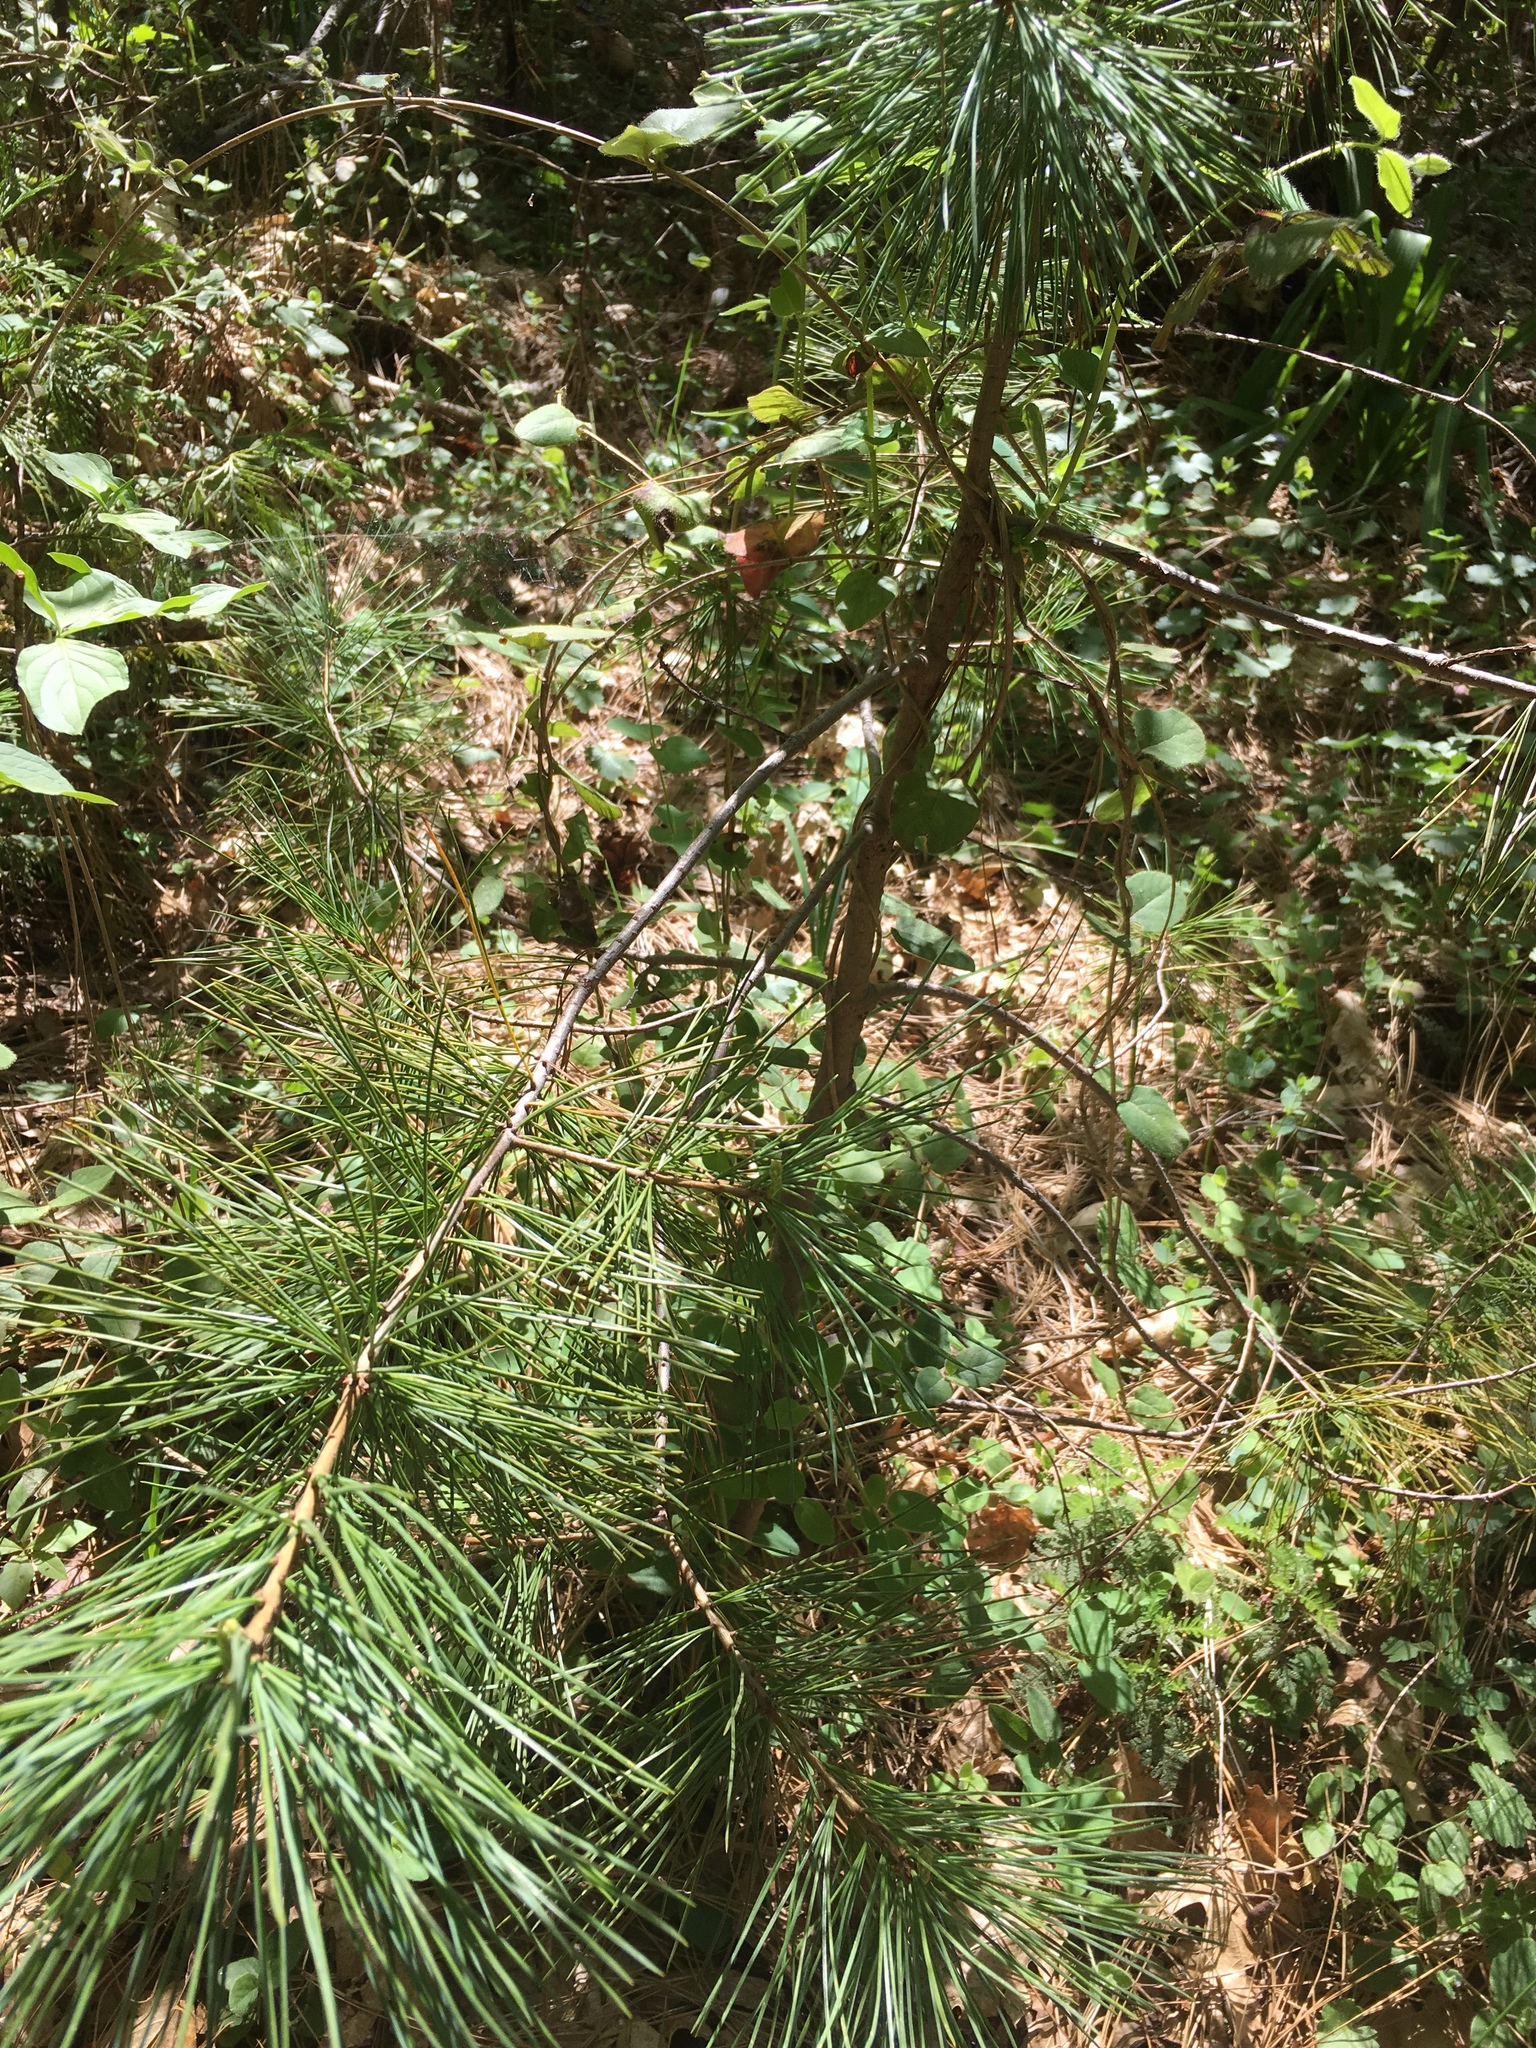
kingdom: Plantae
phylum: Tracheophyta
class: Pinopsida
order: Pinales
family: Pinaceae
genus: Pinus
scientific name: Pinus lambertiana
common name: Sugar pine
